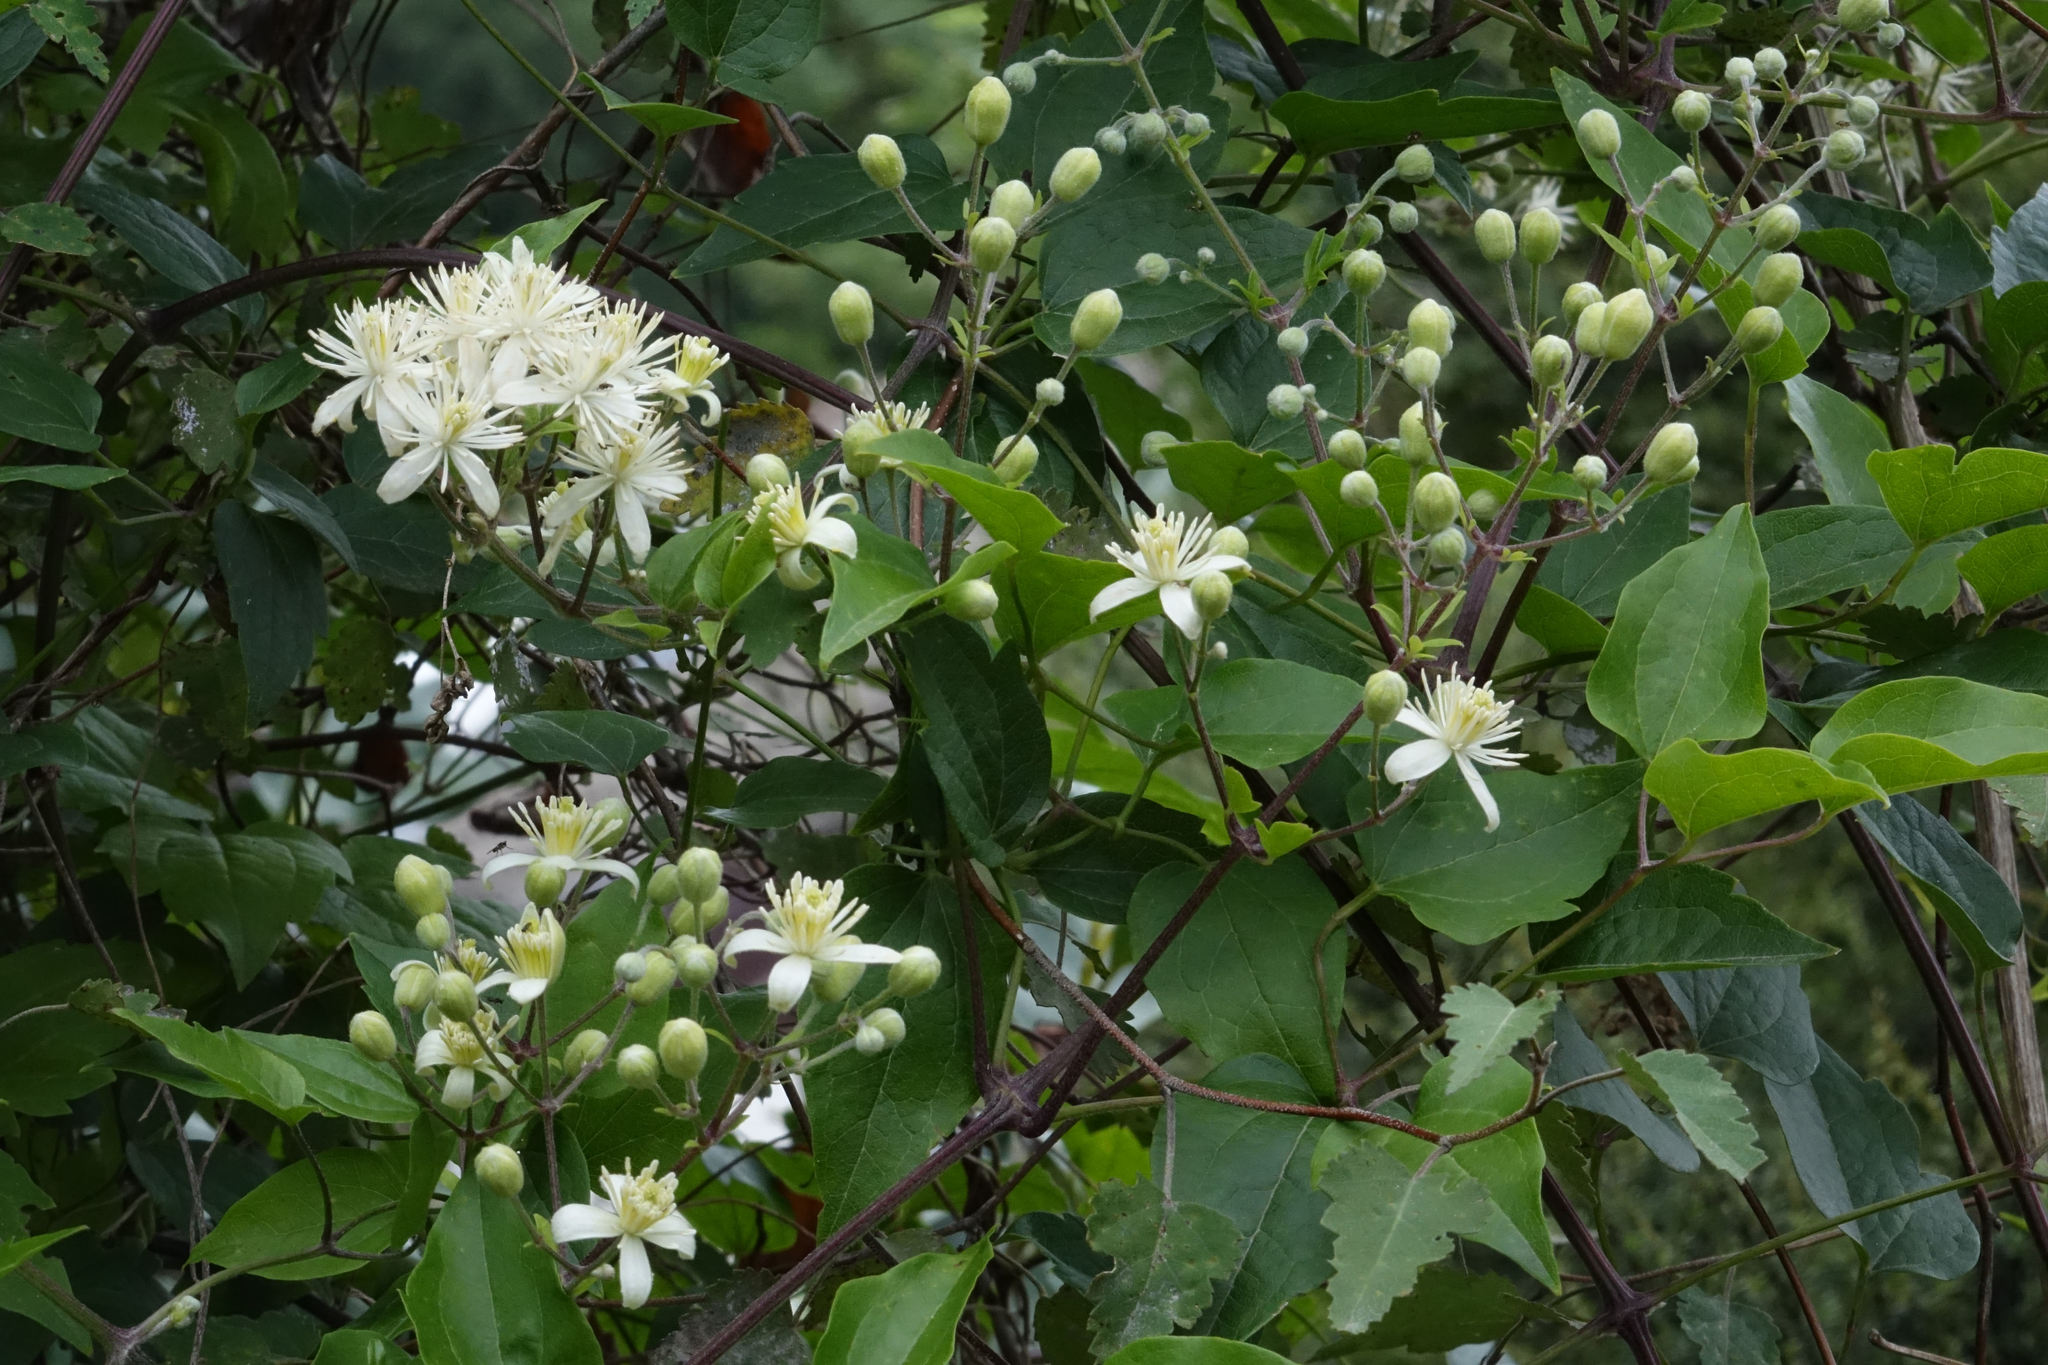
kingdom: Plantae
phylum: Tracheophyta
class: Magnoliopsida
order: Ranunculales
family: Ranunculaceae
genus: Clematis
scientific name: Clematis vitalba
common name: Evergreen clematis
